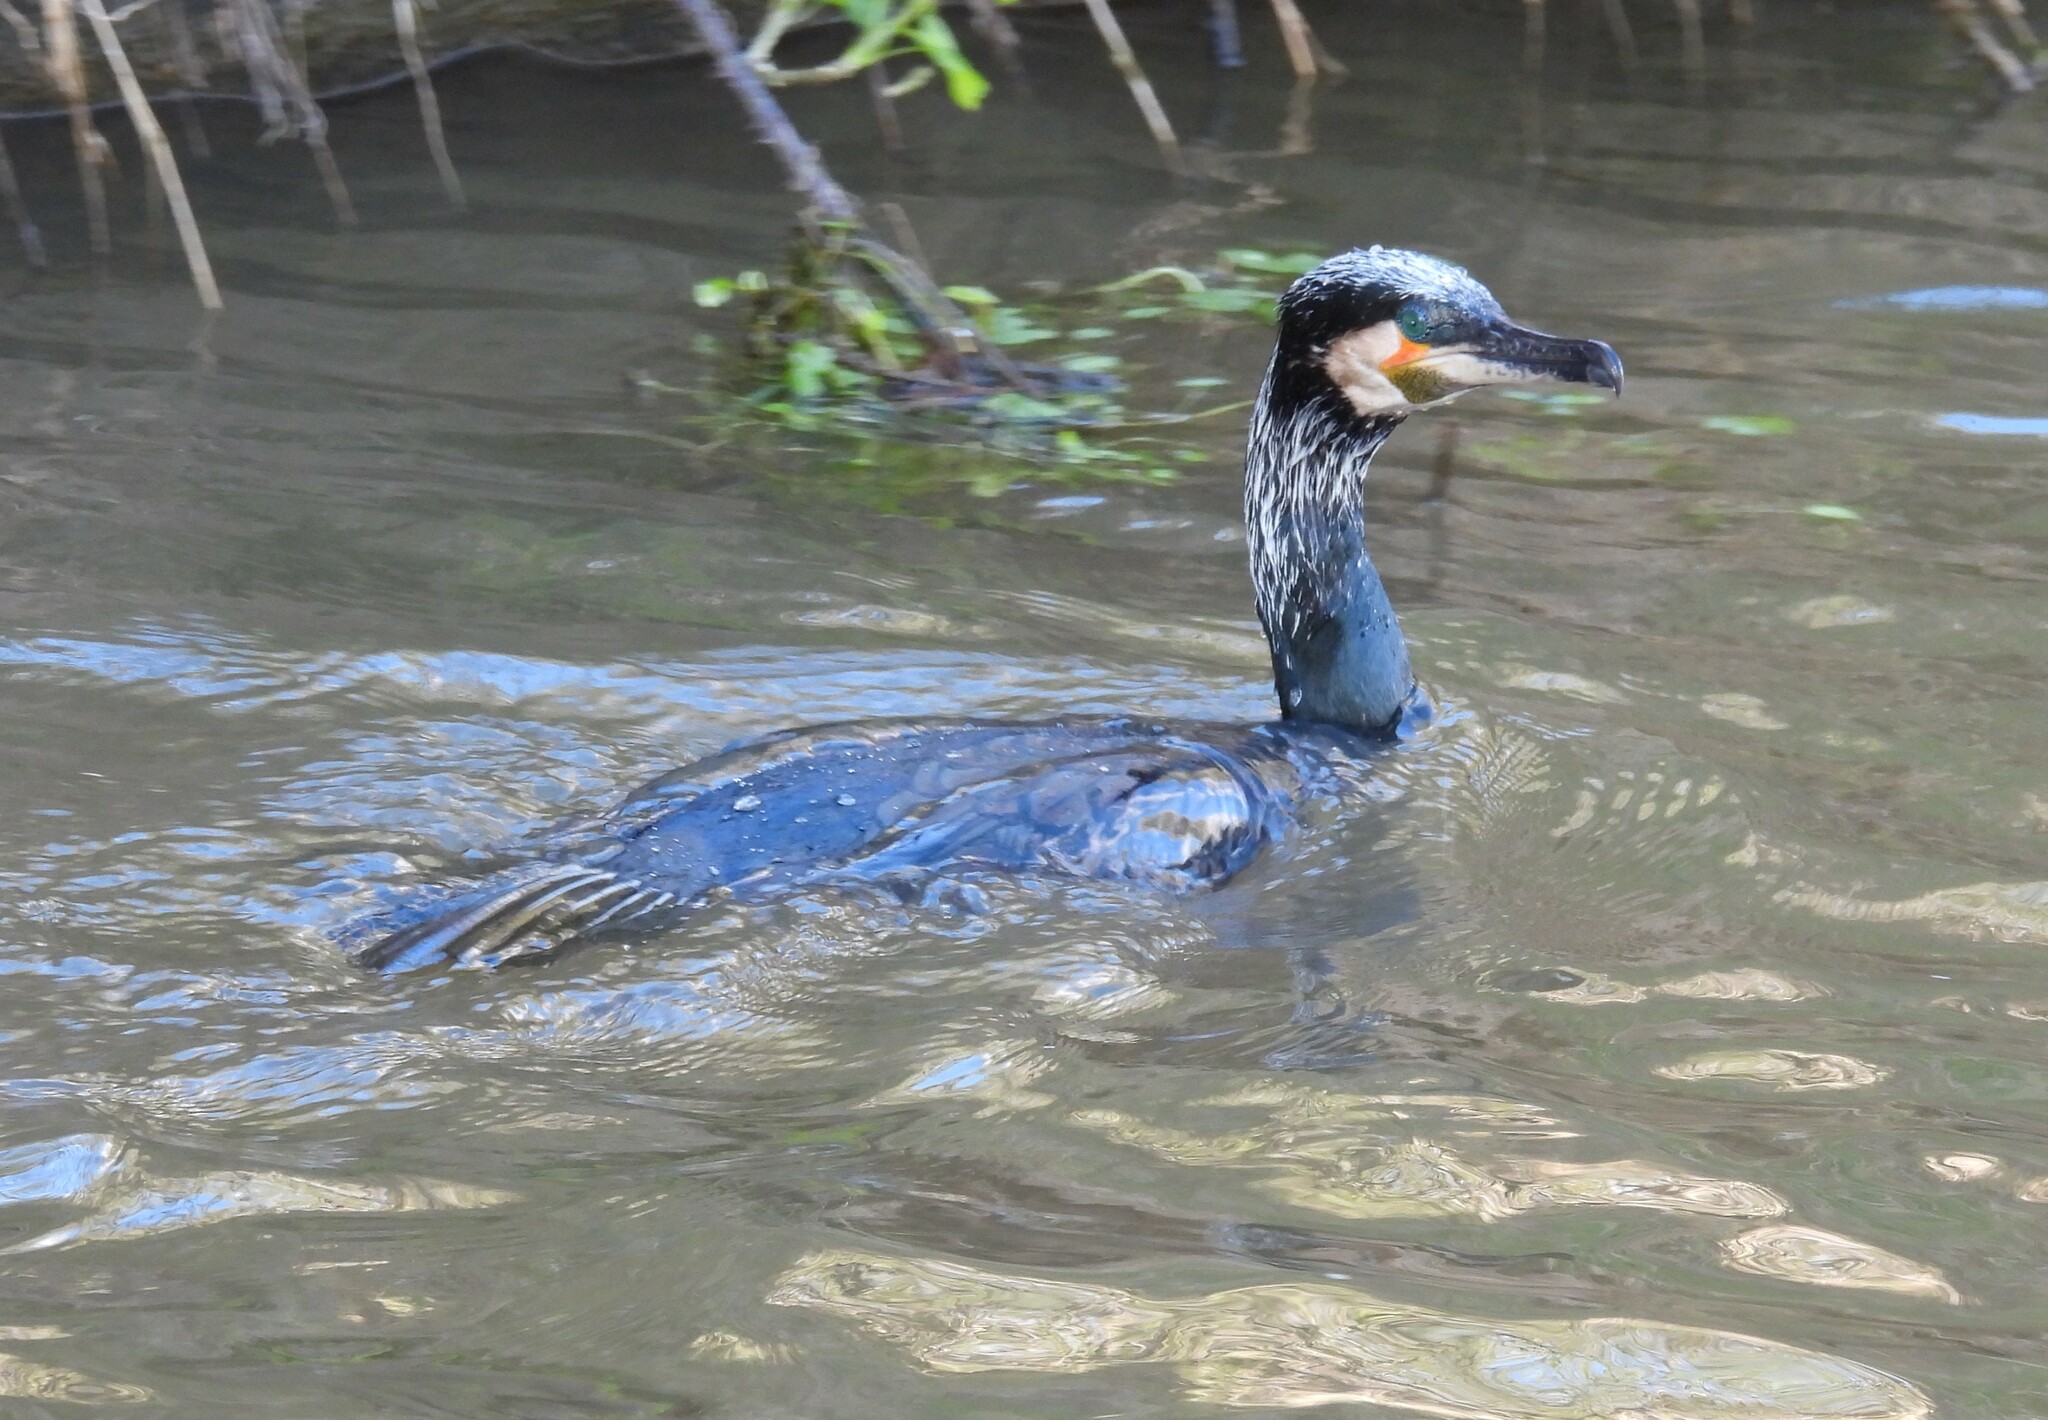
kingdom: Animalia
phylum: Chordata
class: Aves
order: Suliformes
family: Phalacrocoracidae
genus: Phalacrocorax
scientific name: Phalacrocorax carbo
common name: Great cormorant
